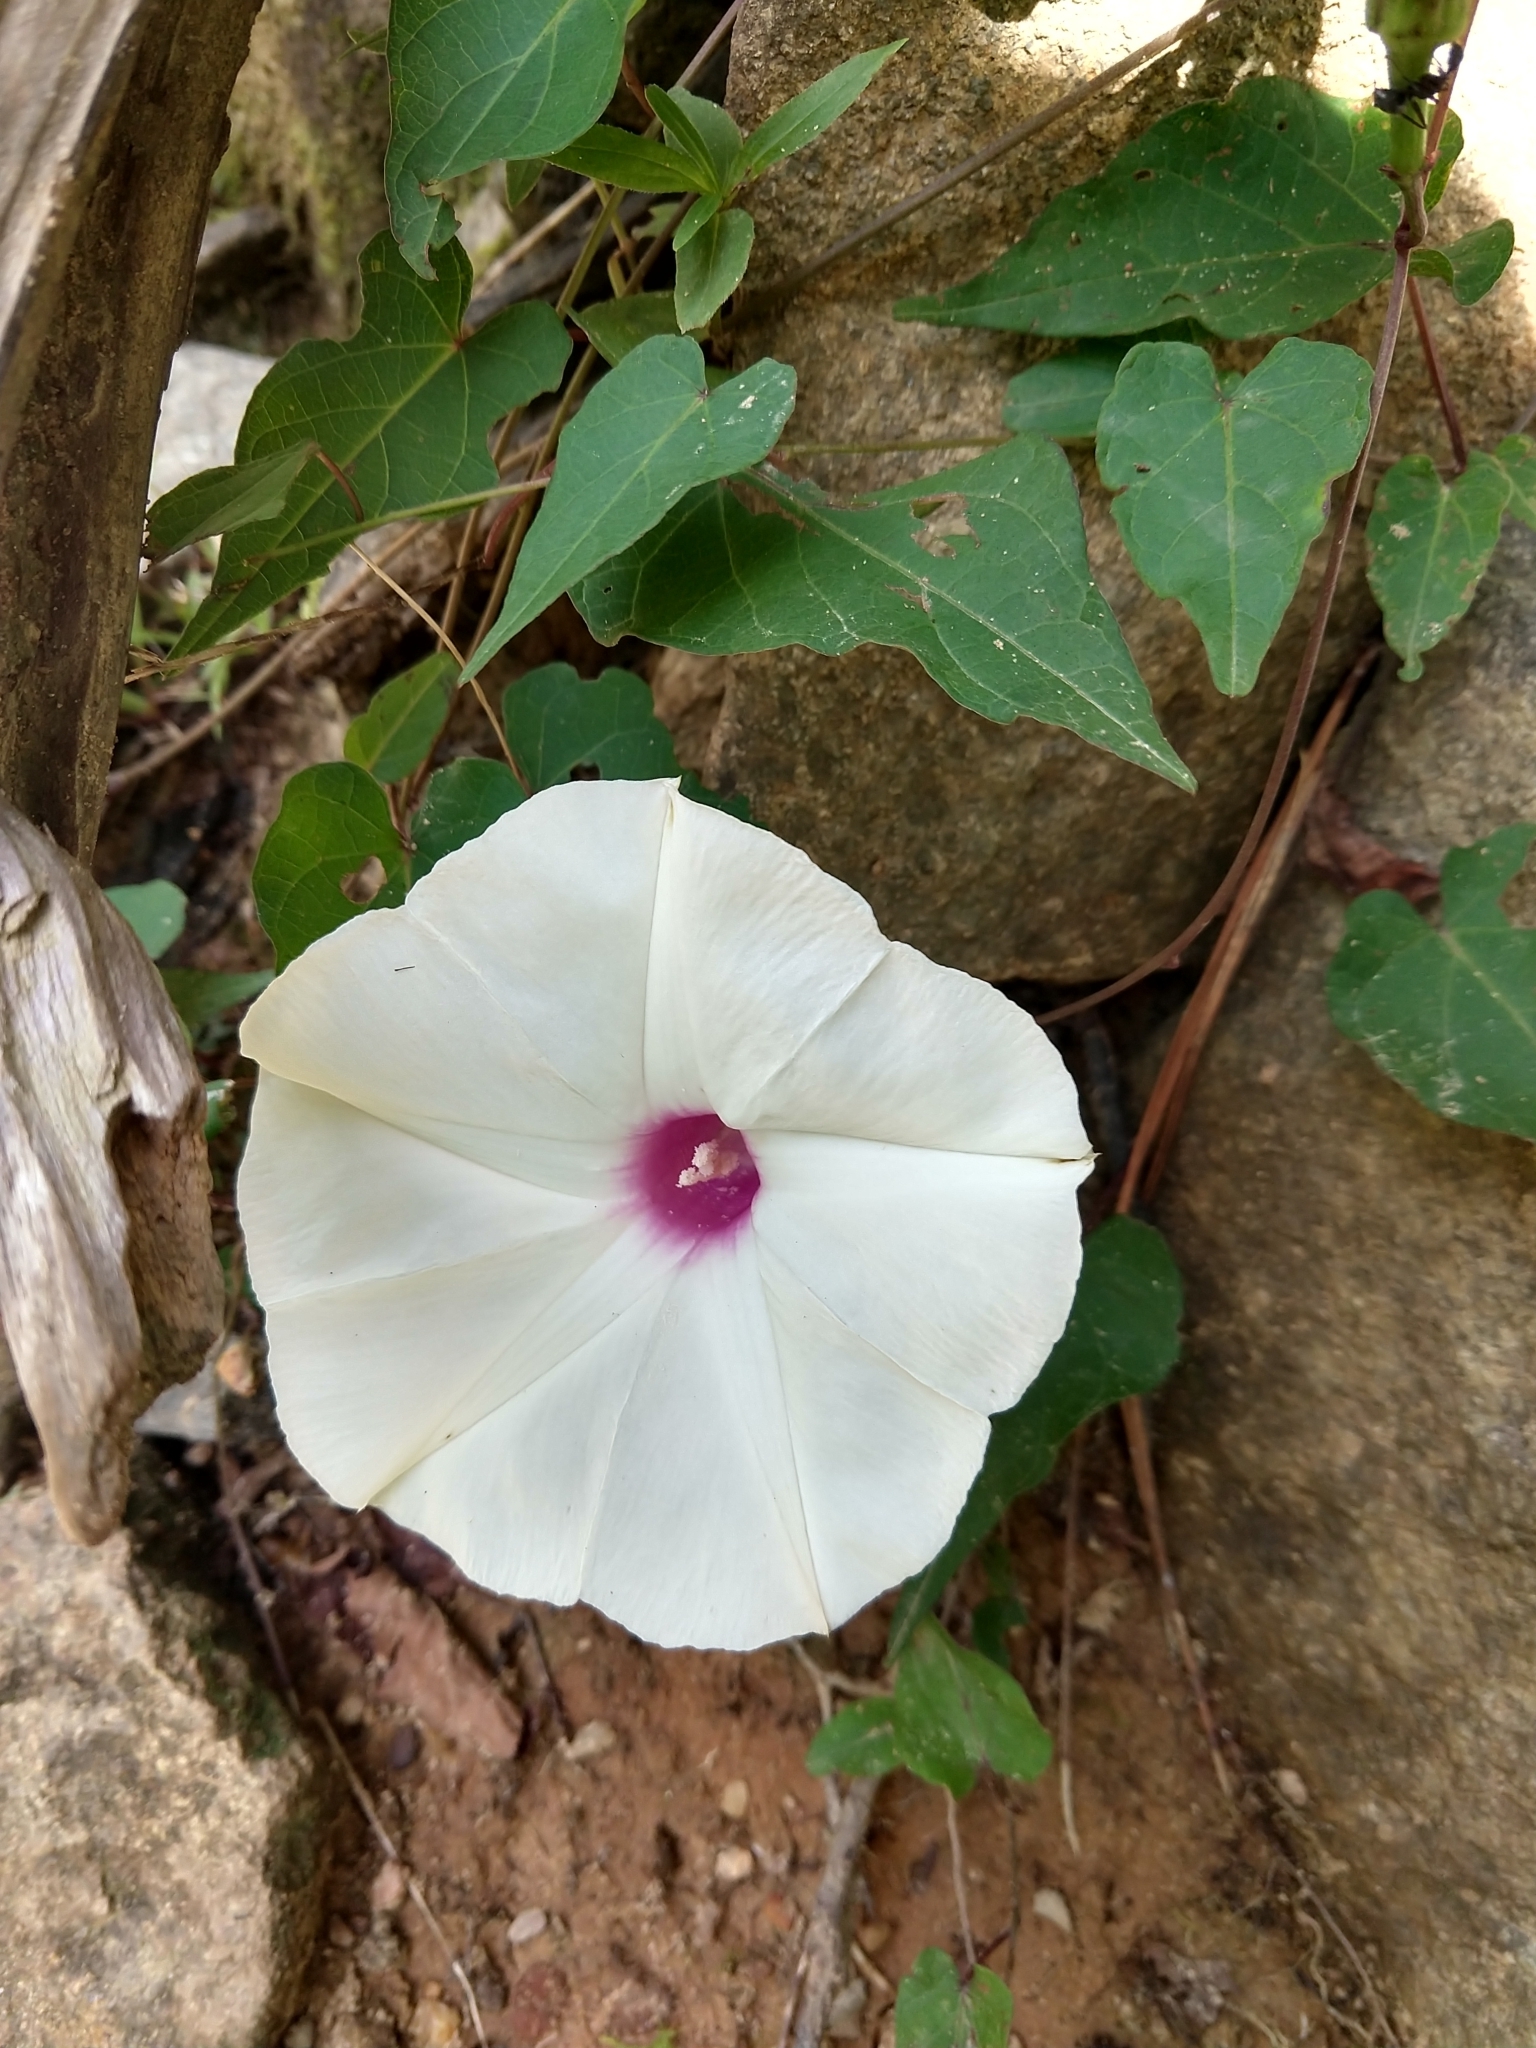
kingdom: Plantae
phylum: Tracheophyta
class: Magnoliopsida
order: Solanales
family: Convolvulaceae
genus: Ipomoea
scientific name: Ipomoea pandurata
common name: Man-of-the-earth
